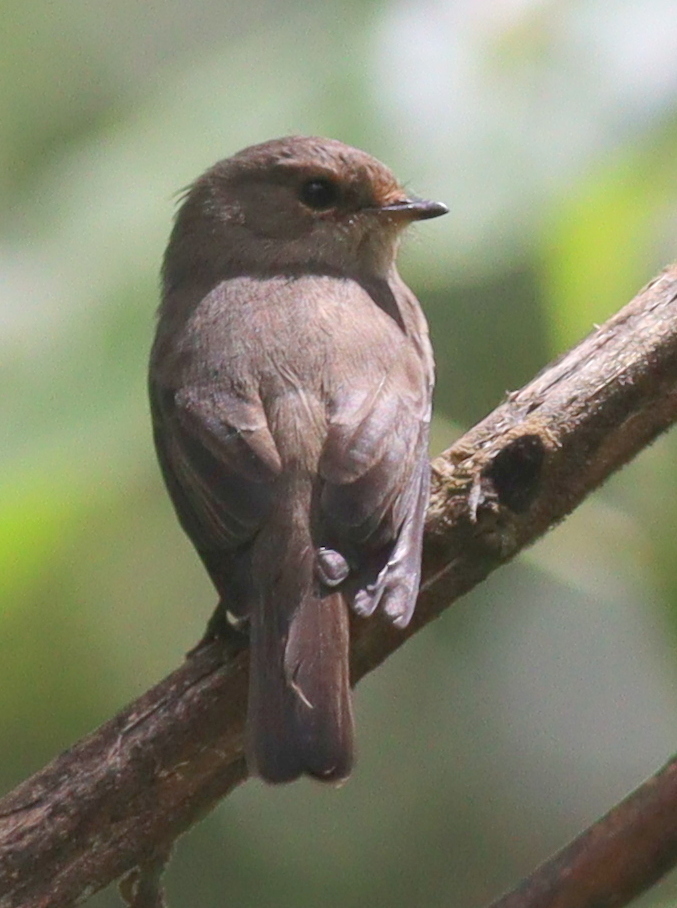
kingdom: Animalia
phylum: Chordata
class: Aves
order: Passeriformes
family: Muscicapidae
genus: Muscicapa
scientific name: Muscicapa adusta
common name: African dusky flycatcher
